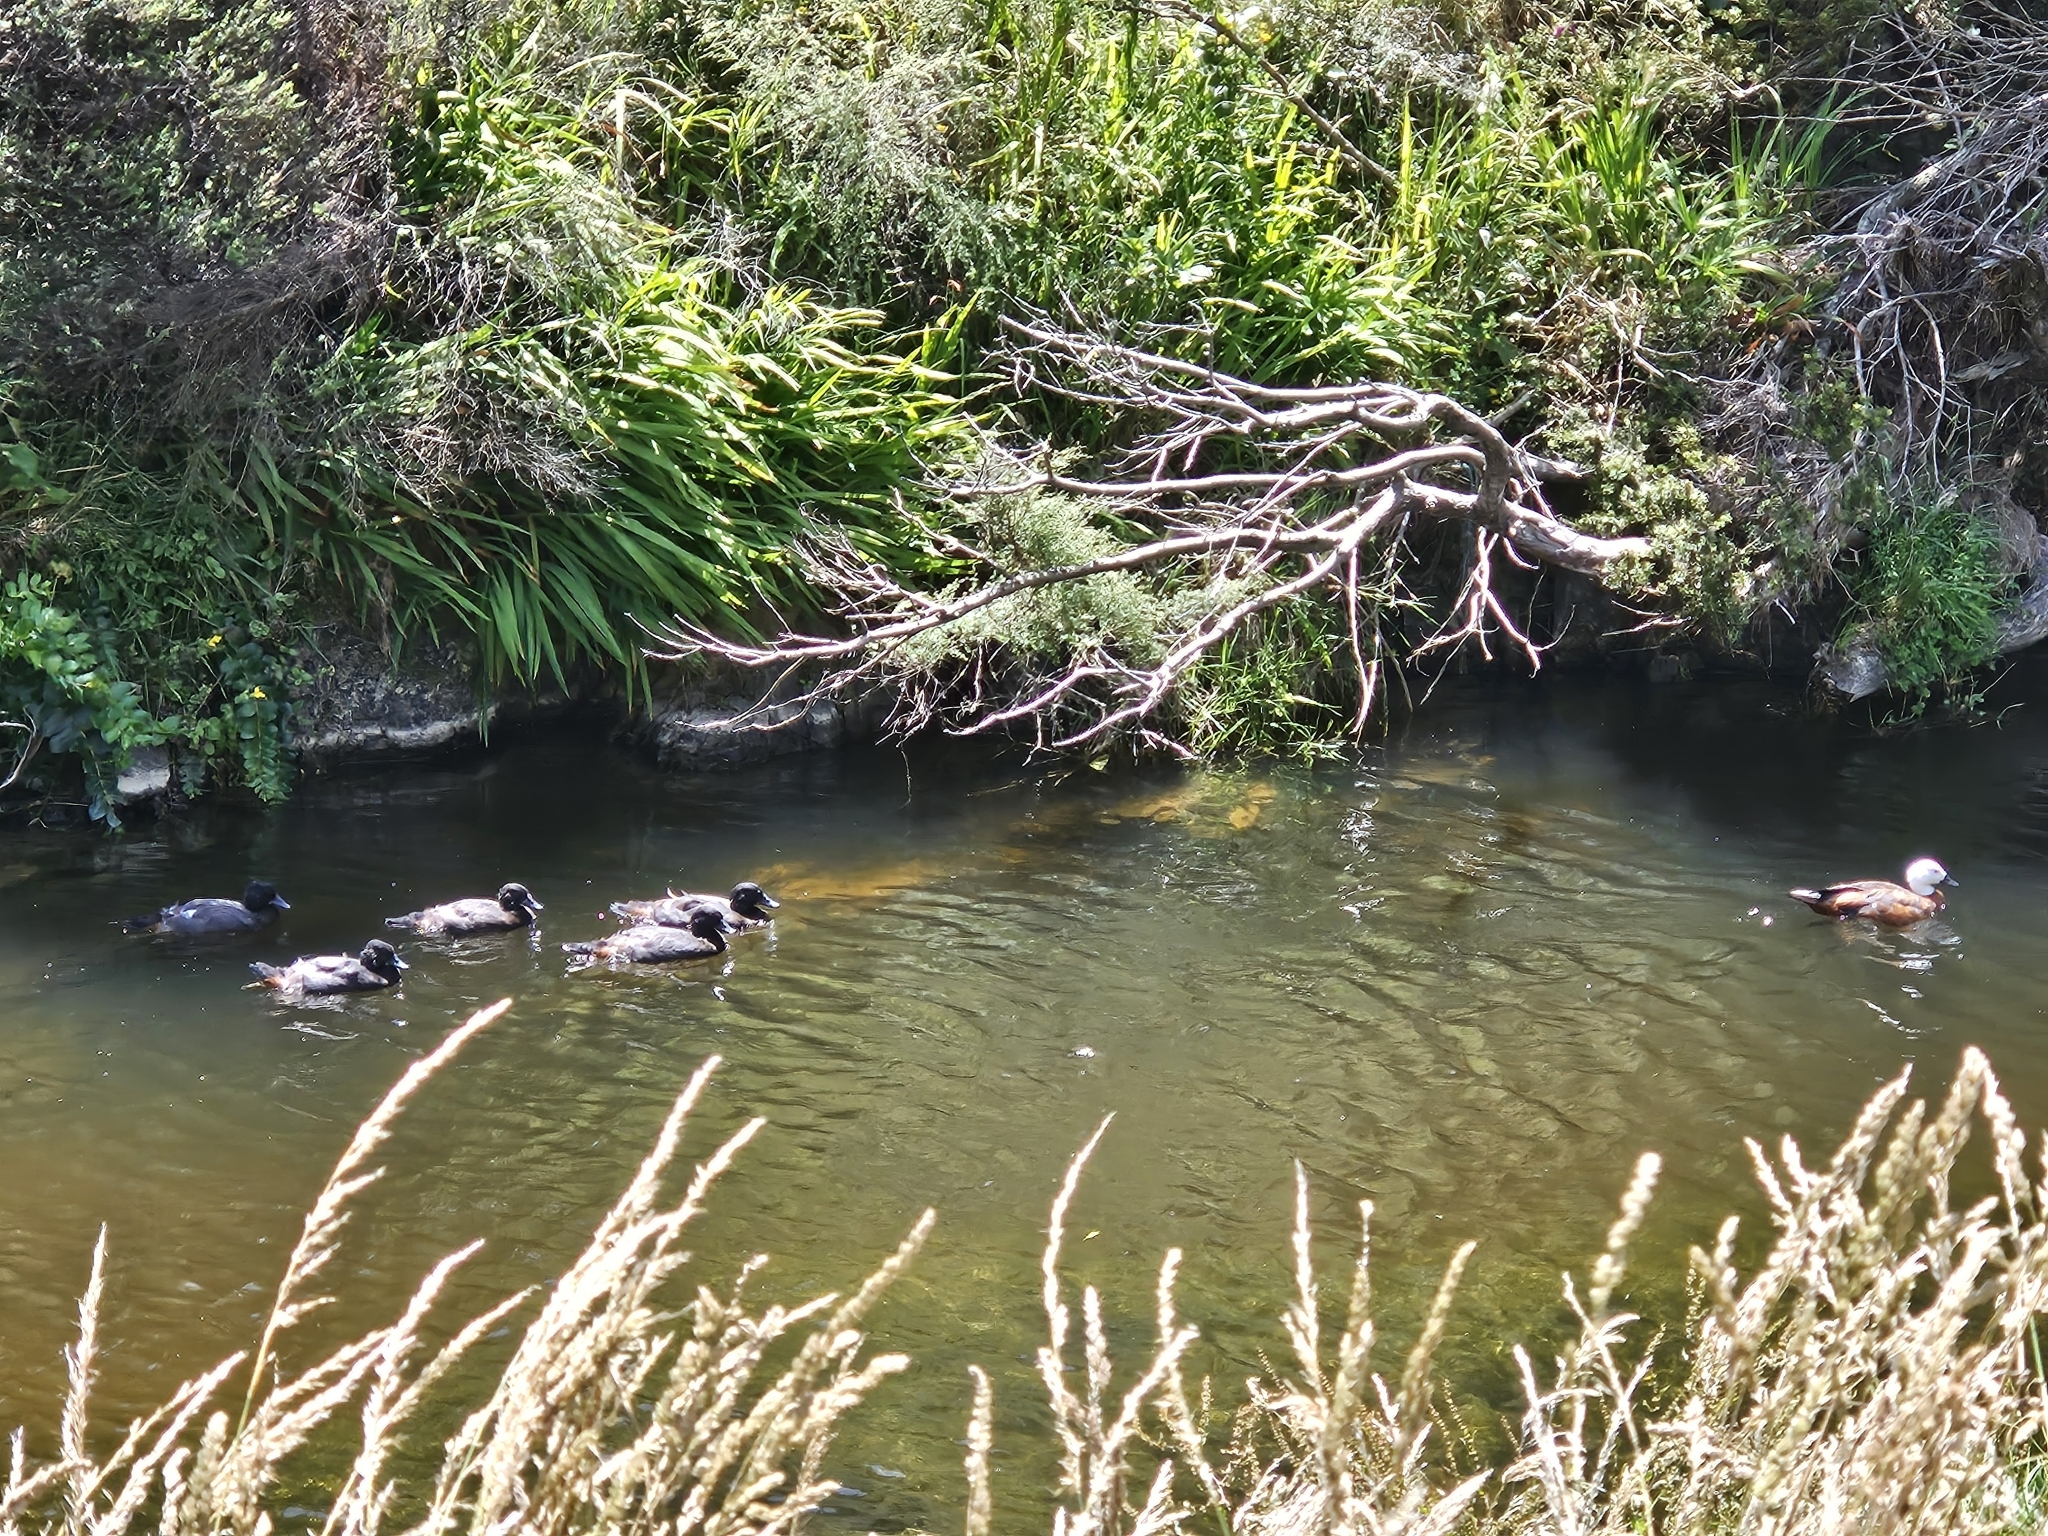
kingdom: Animalia
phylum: Chordata
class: Aves
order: Anseriformes
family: Anatidae
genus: Tadorna
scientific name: Tadorna variegata
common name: Paradise shelduck
